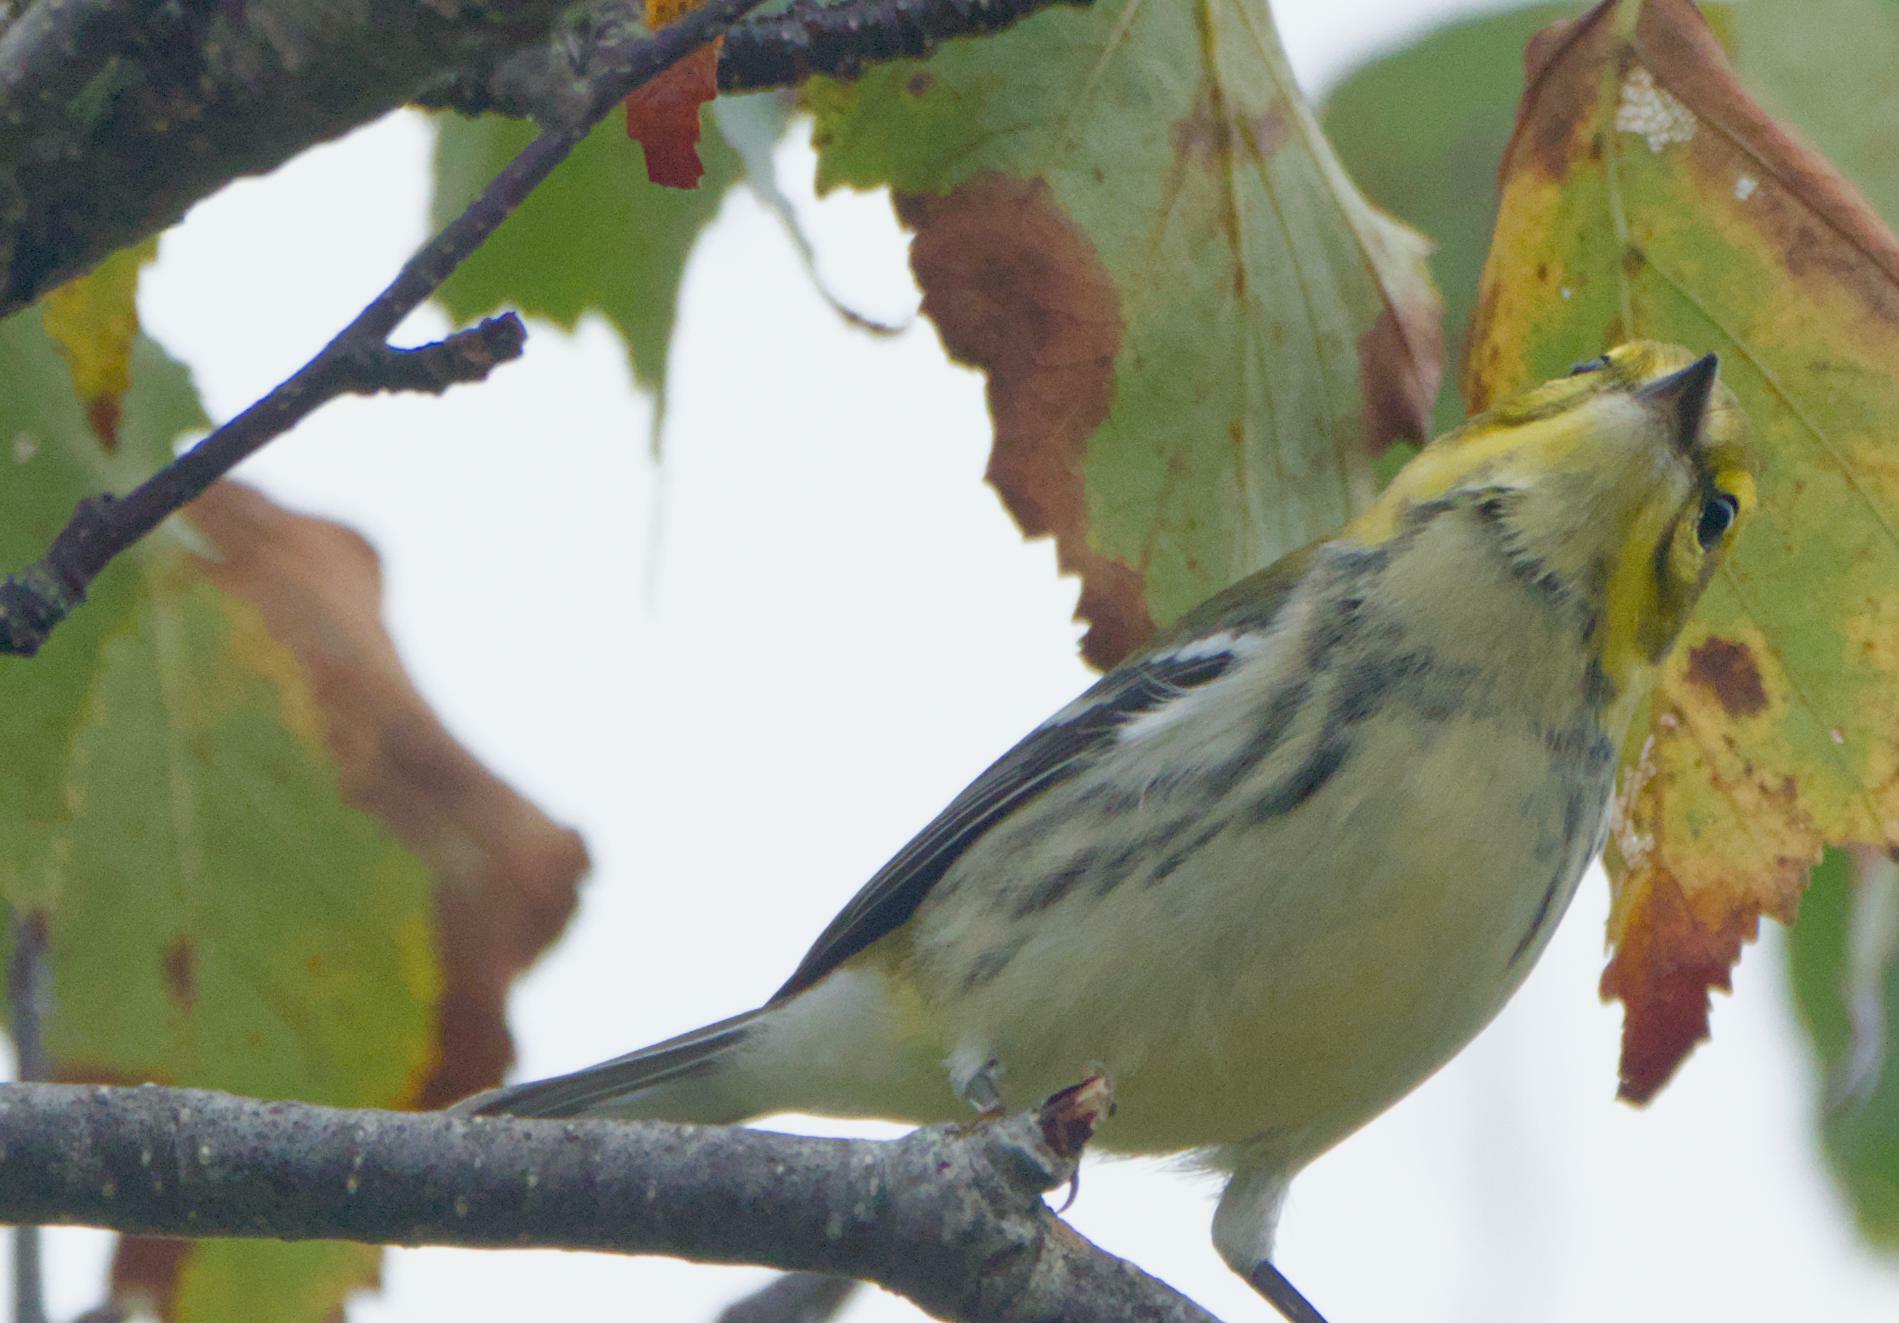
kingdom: Animalia
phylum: Chordata
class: Aves
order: Passeriformes
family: Parulidae
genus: Setophaga
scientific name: Setophaga virens
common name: Black-throated green warbler
